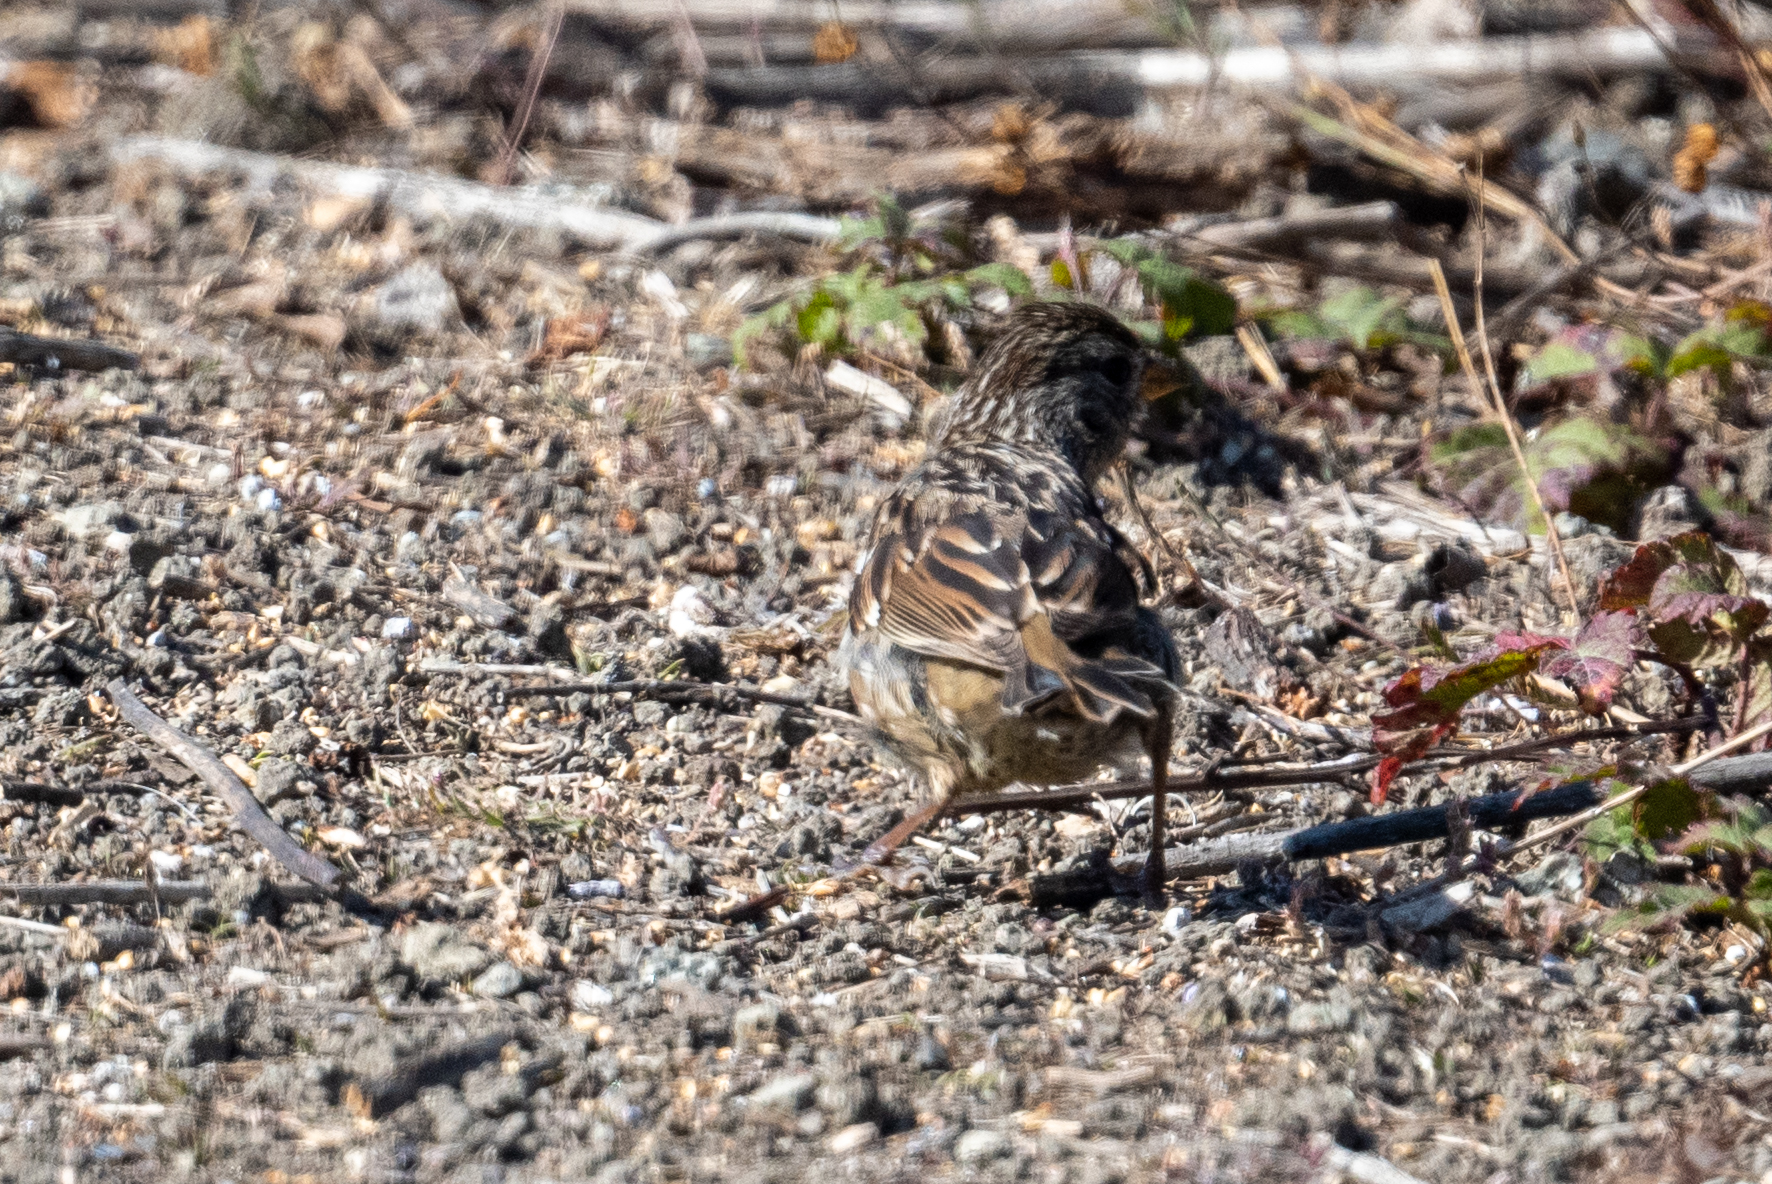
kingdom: Animalia
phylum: Chordata
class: Aves
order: Passeriformes
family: Passerellidae
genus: Zonotrichia
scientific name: Zonotrichia leucophrys
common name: White-crowned sparrow
